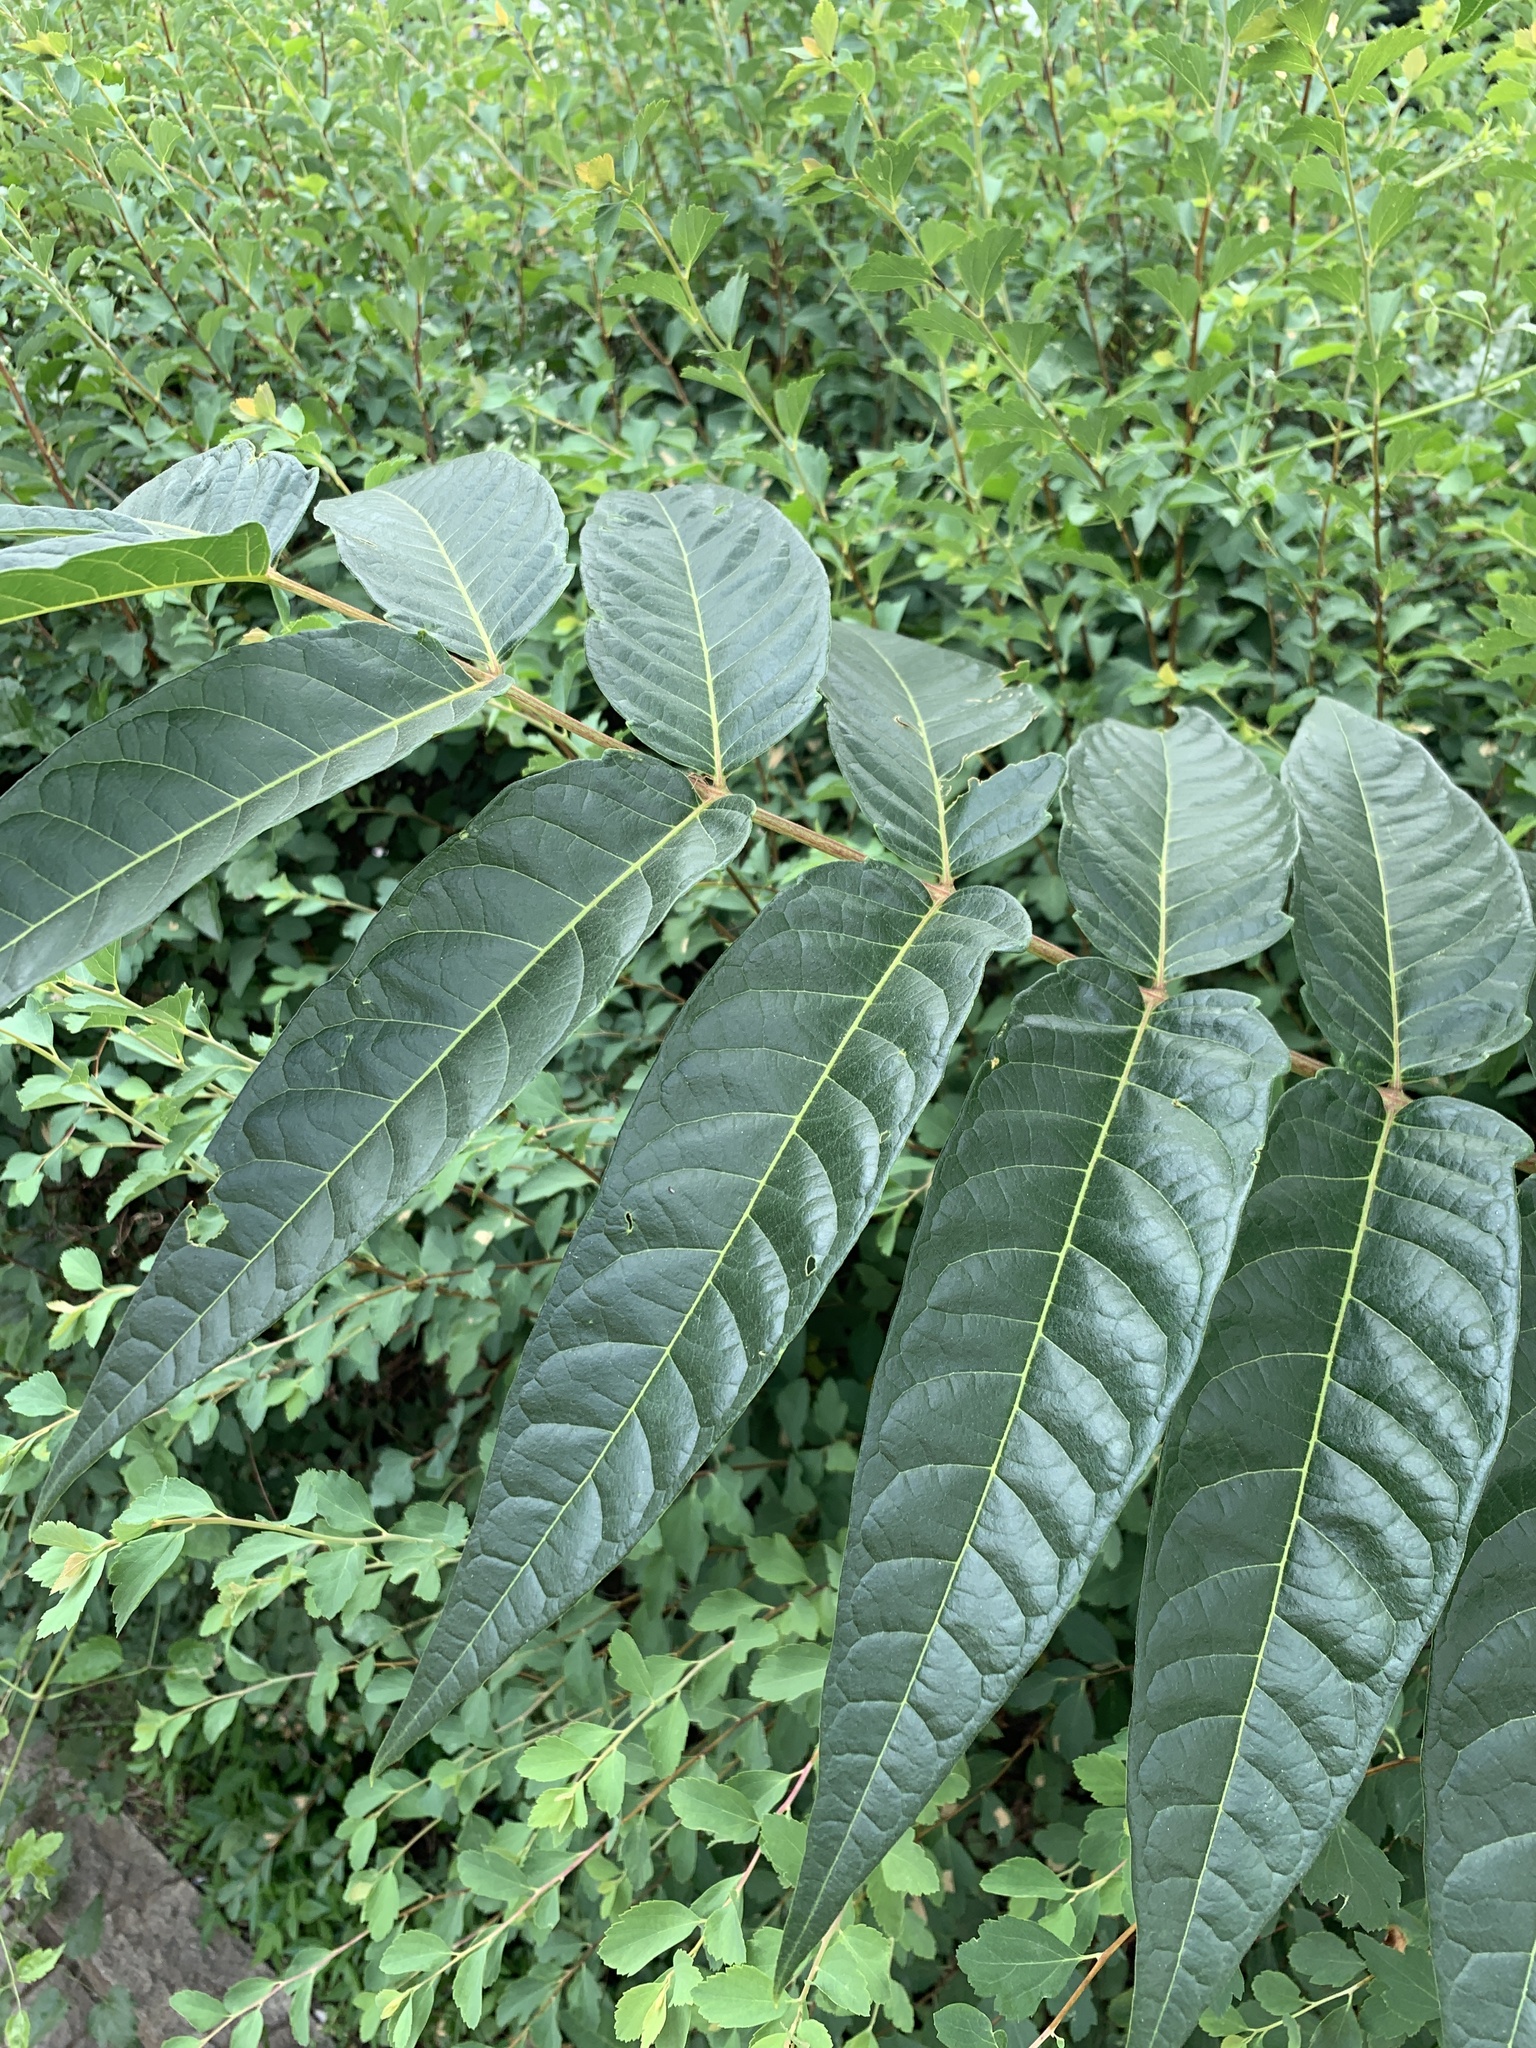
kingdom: Plantae
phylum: Tracheophyta
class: Magnoliopsida
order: Sapindales
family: Simaroubaceae
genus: Ailanthus
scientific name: Ailanthus altissima
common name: Tree-of-heaven
